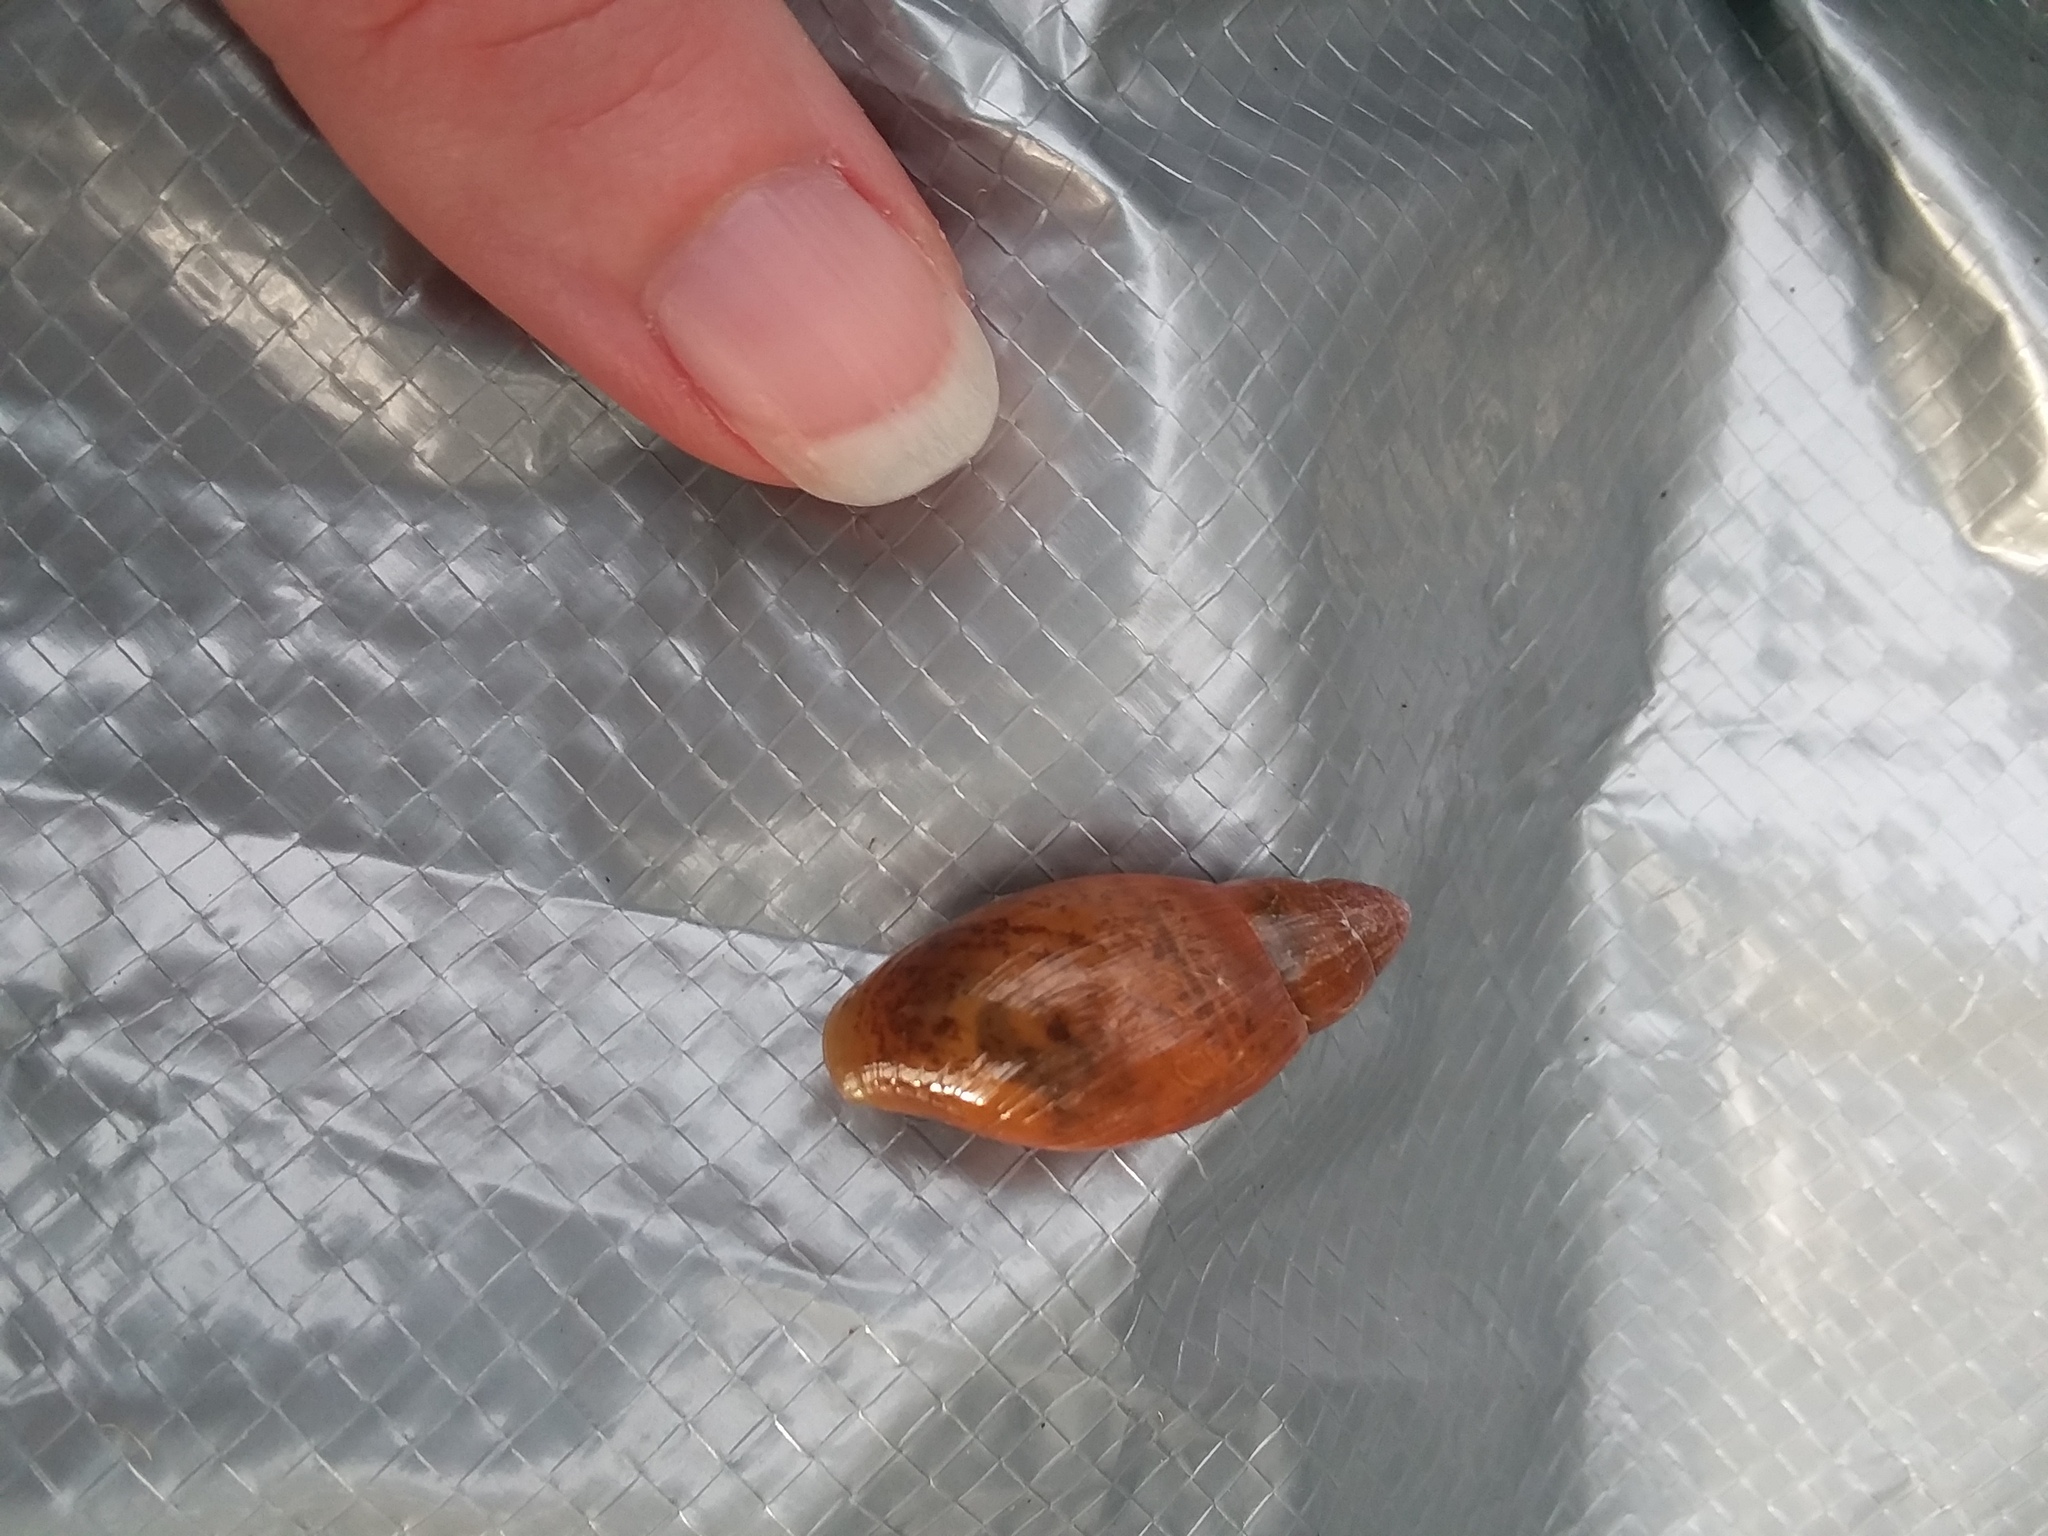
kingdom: Animalia
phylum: Mollusca
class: Gastropoda
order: Stylommatophora
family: Spiraxidae
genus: Euglandina
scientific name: Euglandina rosea
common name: Rosy wolfsnail
